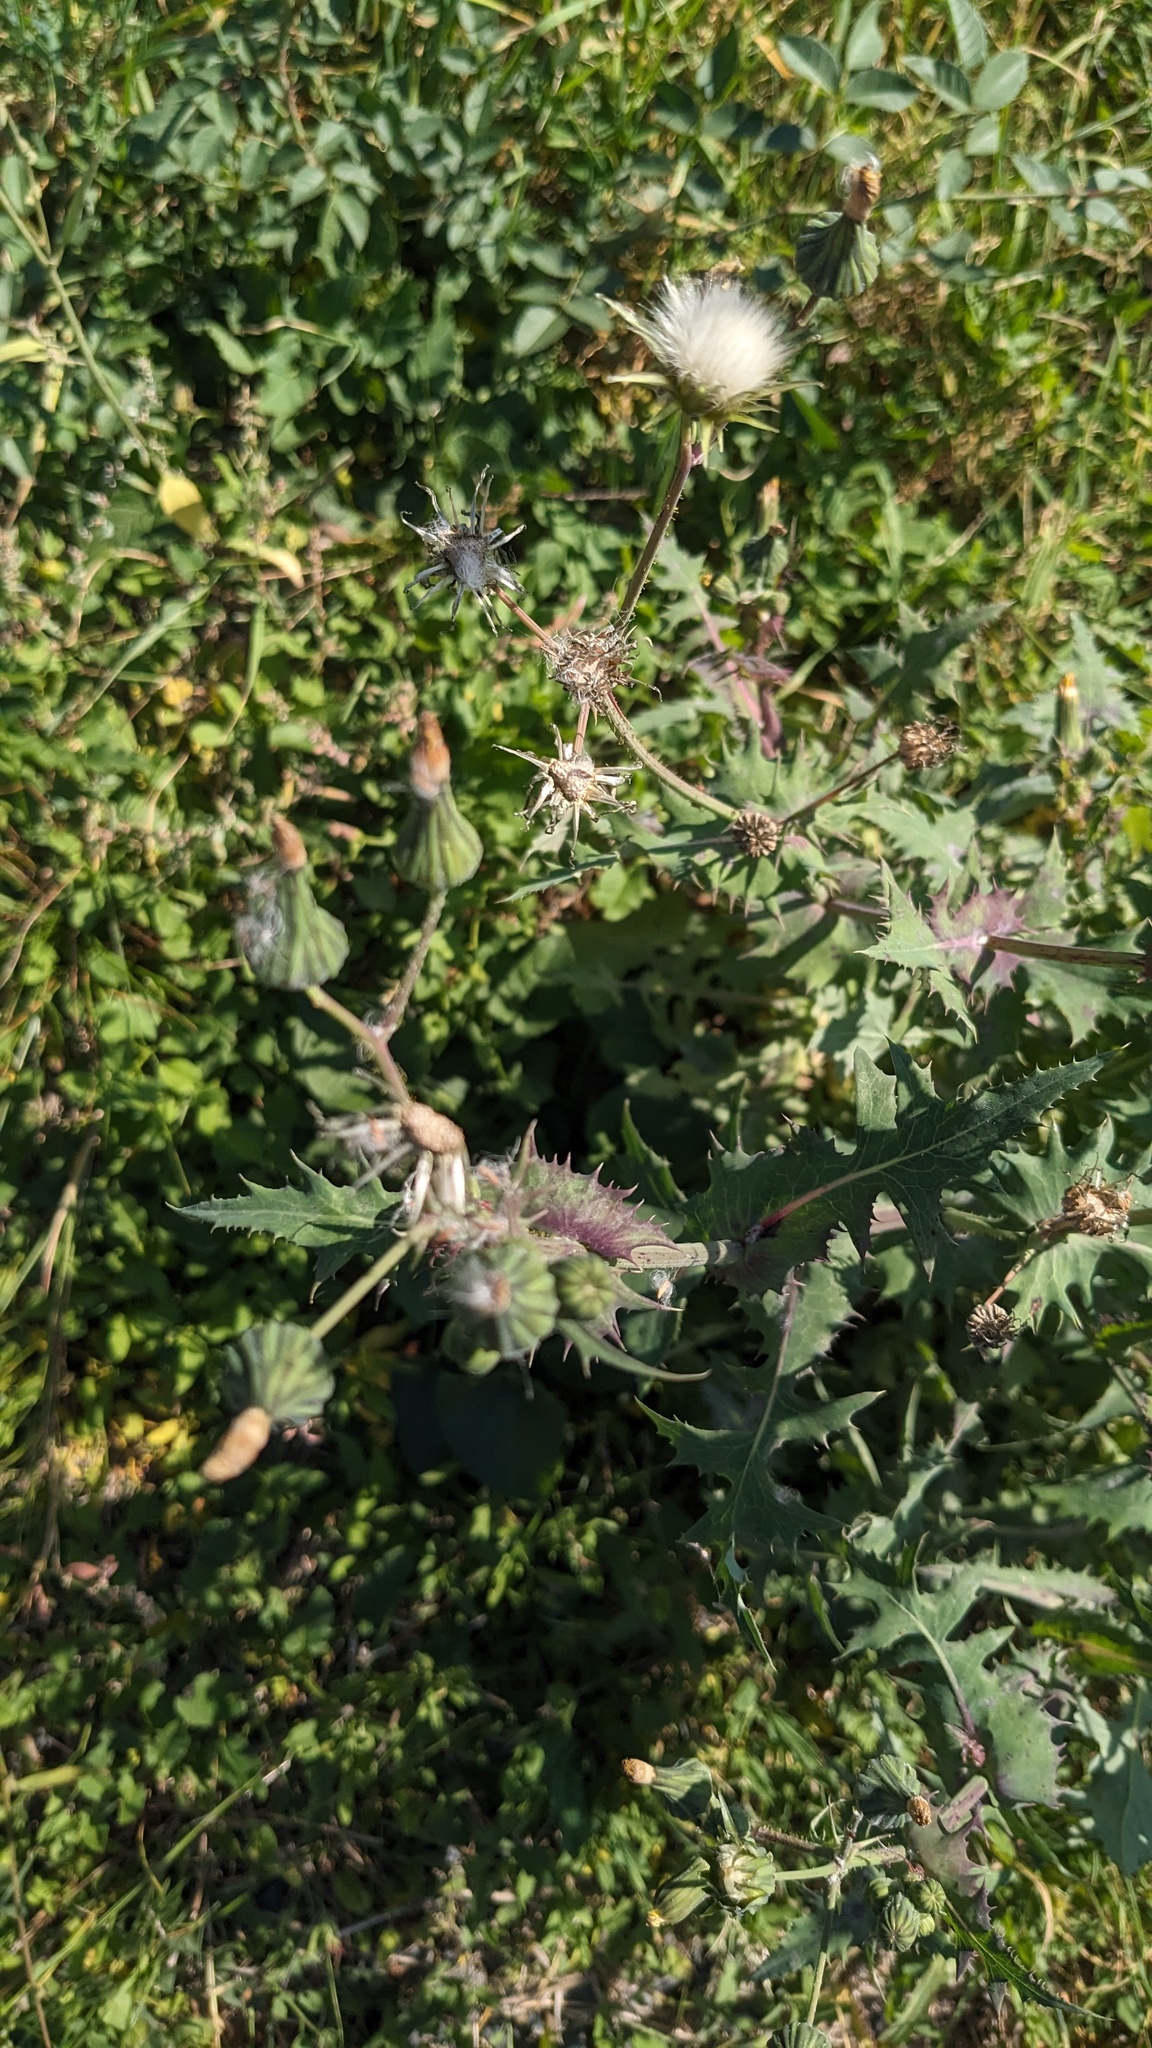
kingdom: Plantae
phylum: Tracheophyta
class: Magnoliopsida
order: Asterales
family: Asteraceae
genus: Sonchus
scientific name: Sonchus oleraceus
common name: Common sowthistle
